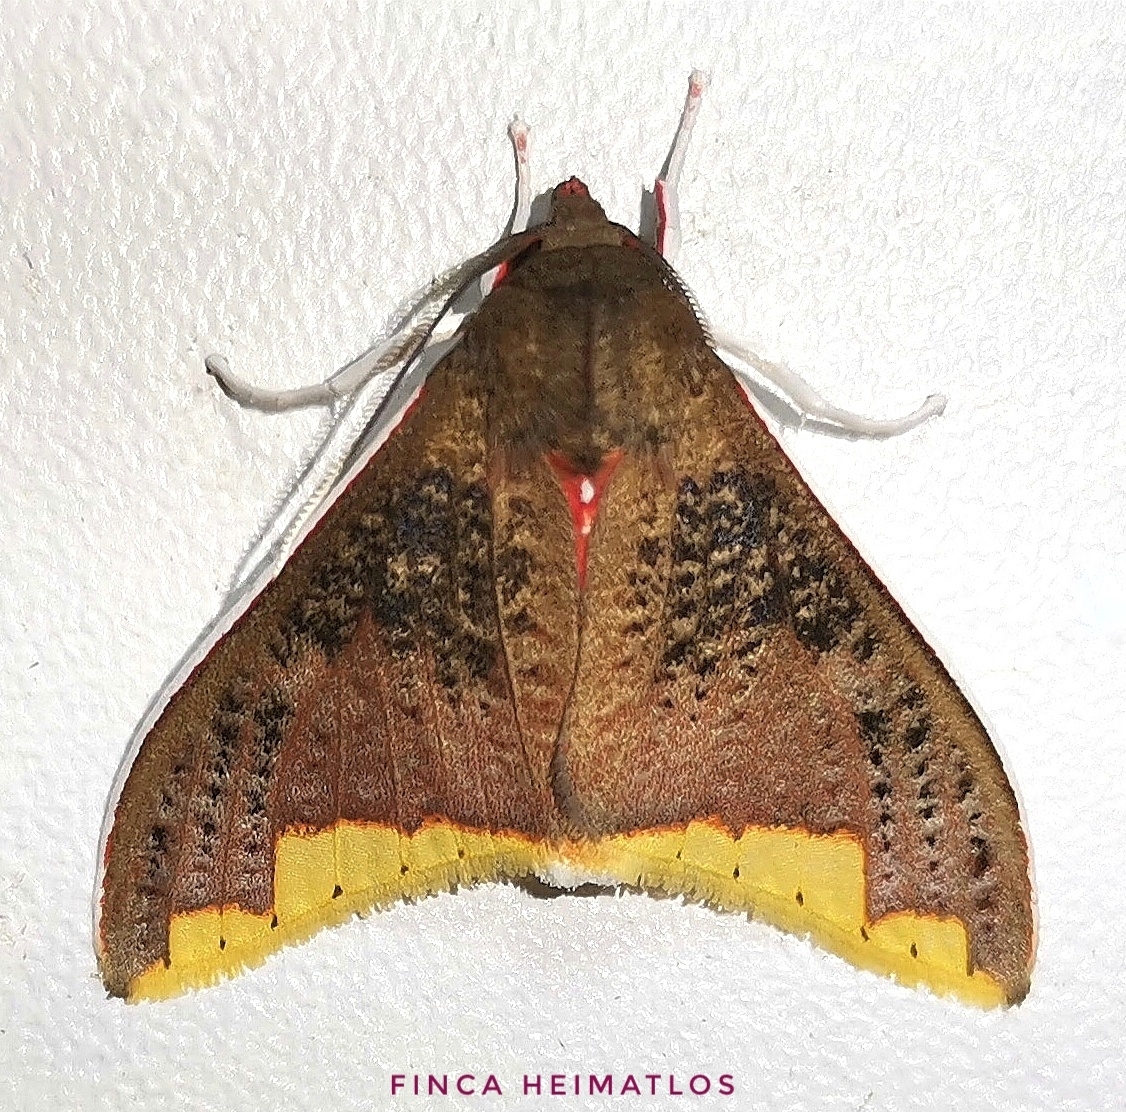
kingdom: Animalia
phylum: Arthropoda
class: Insecta
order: Lepidoptera
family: Erebidae
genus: Arctiarpia
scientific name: Arctiarpia melanopasta
